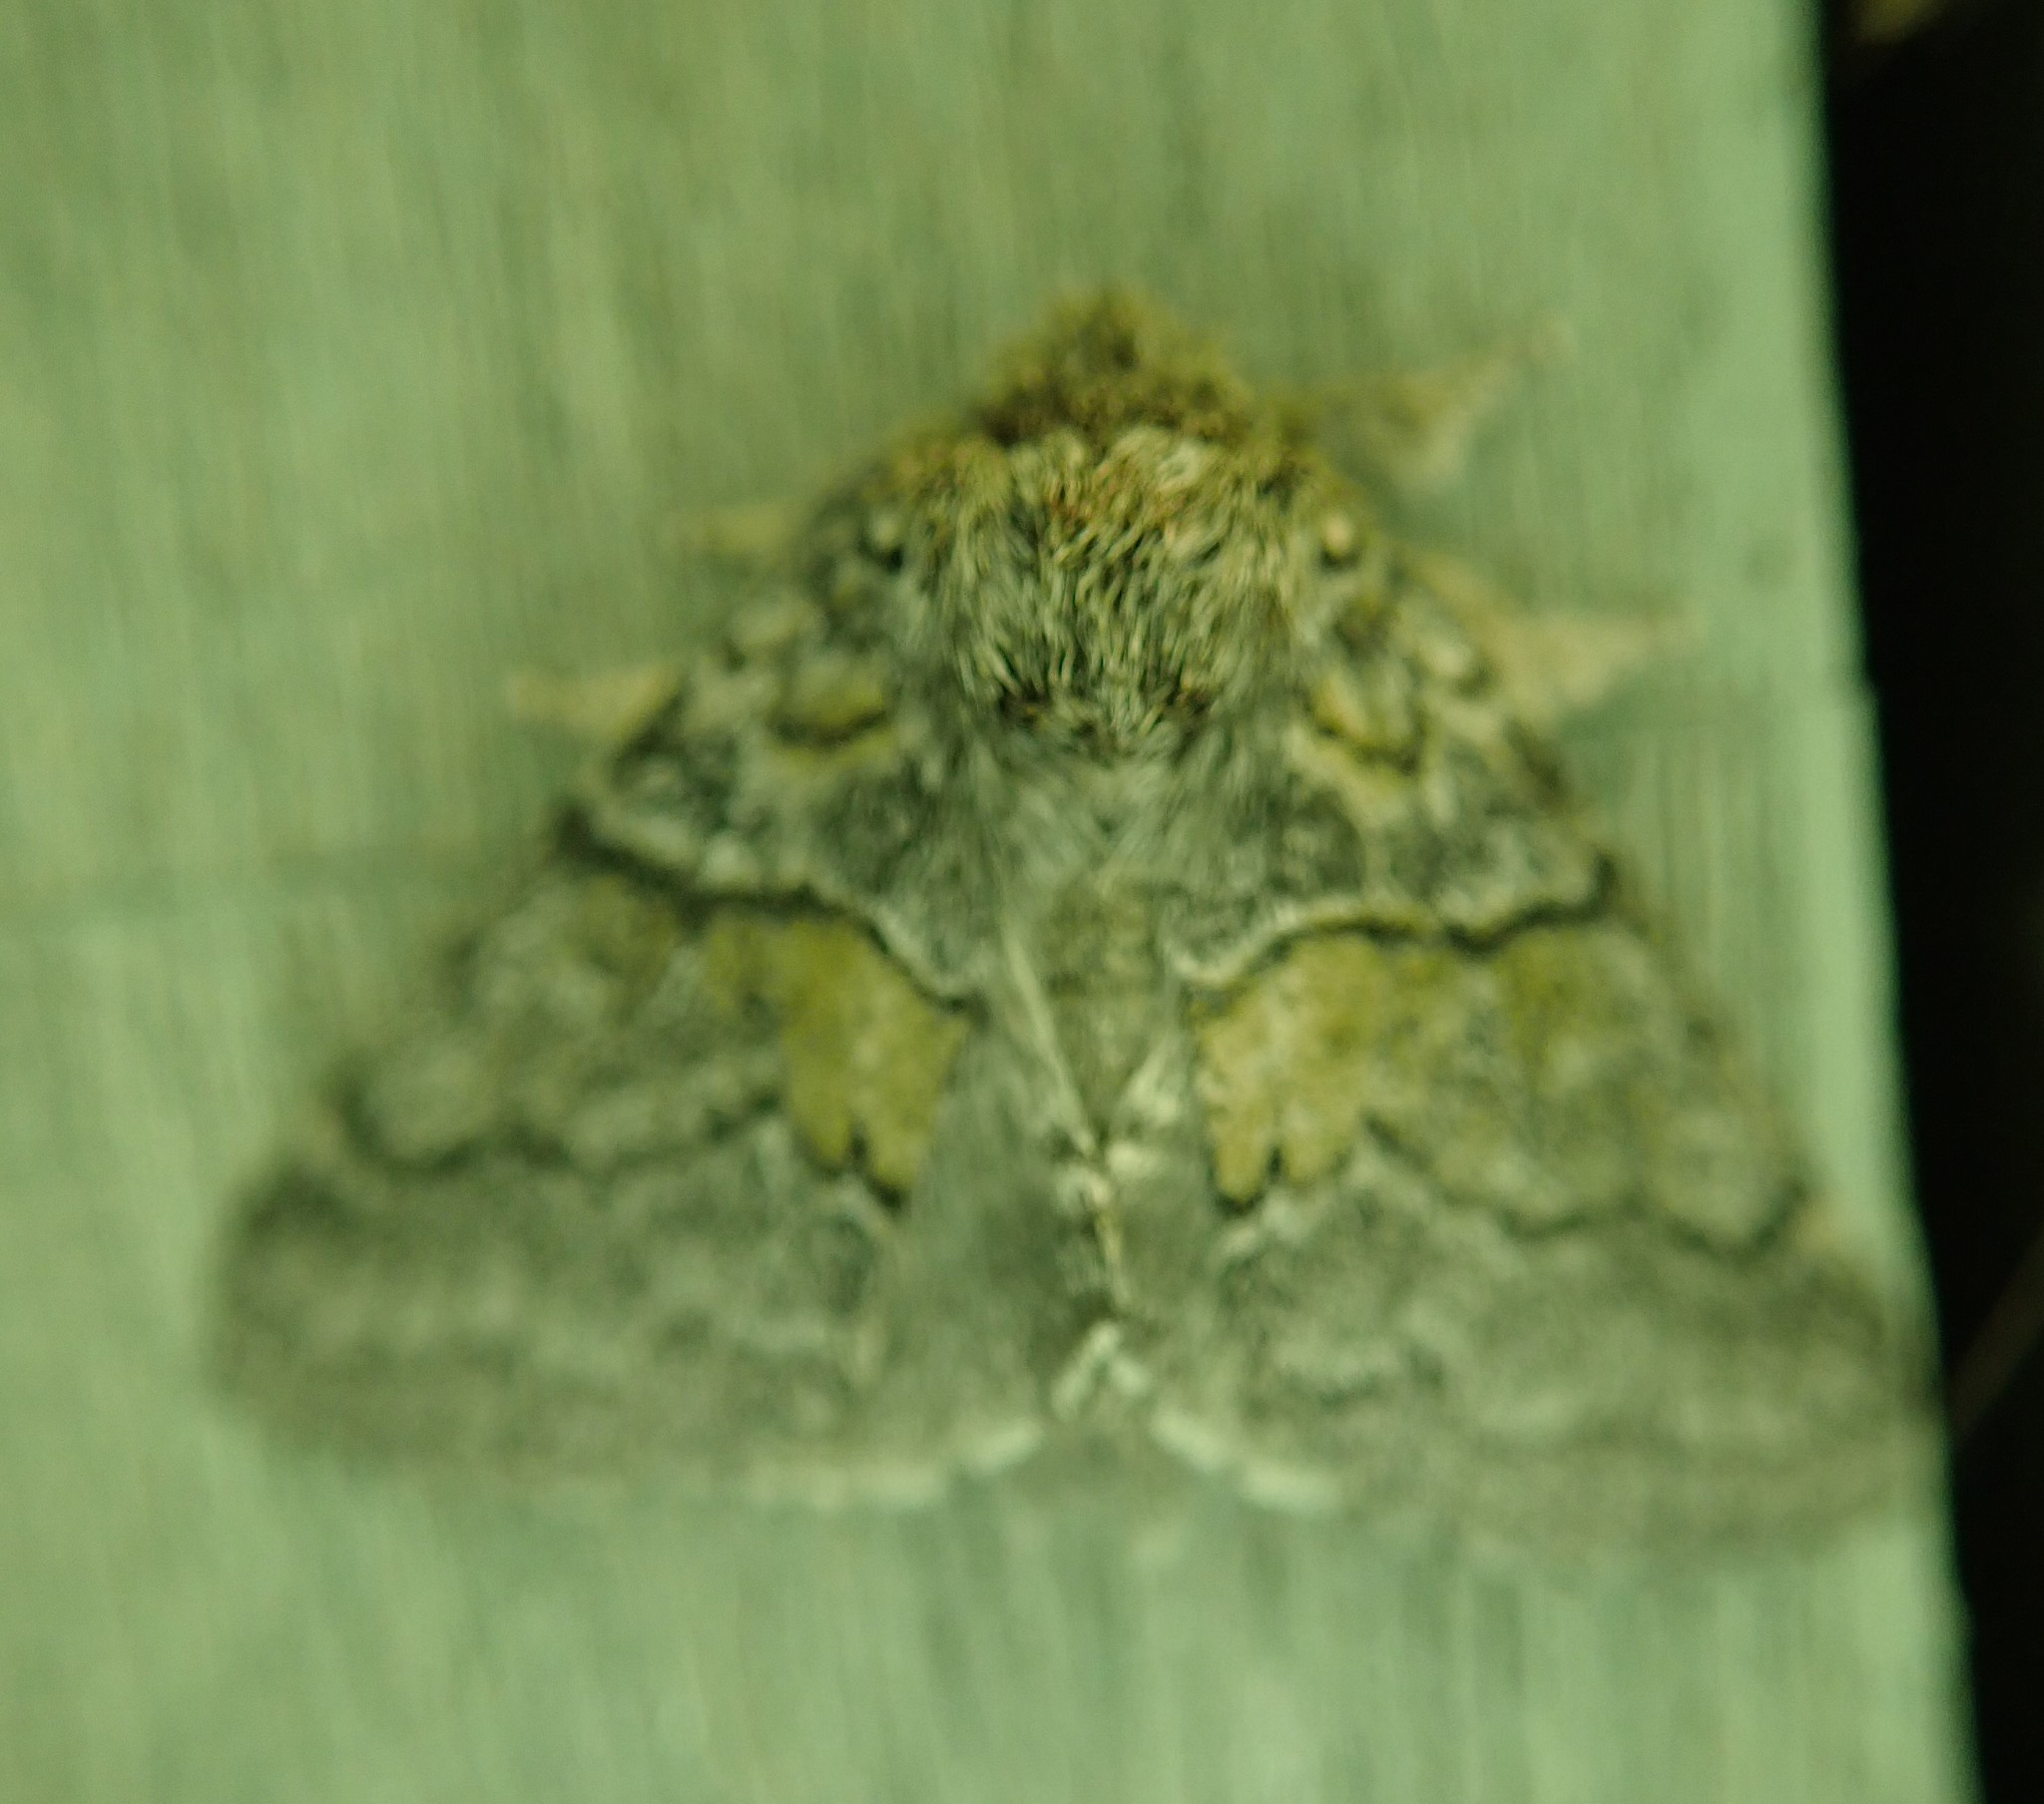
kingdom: Animalia
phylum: Arthropoda
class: Insecta
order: Lepidoptera
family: Notodontidae
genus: Gluphisia
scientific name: Gluphisia septentrionis
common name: Common gluphisia
